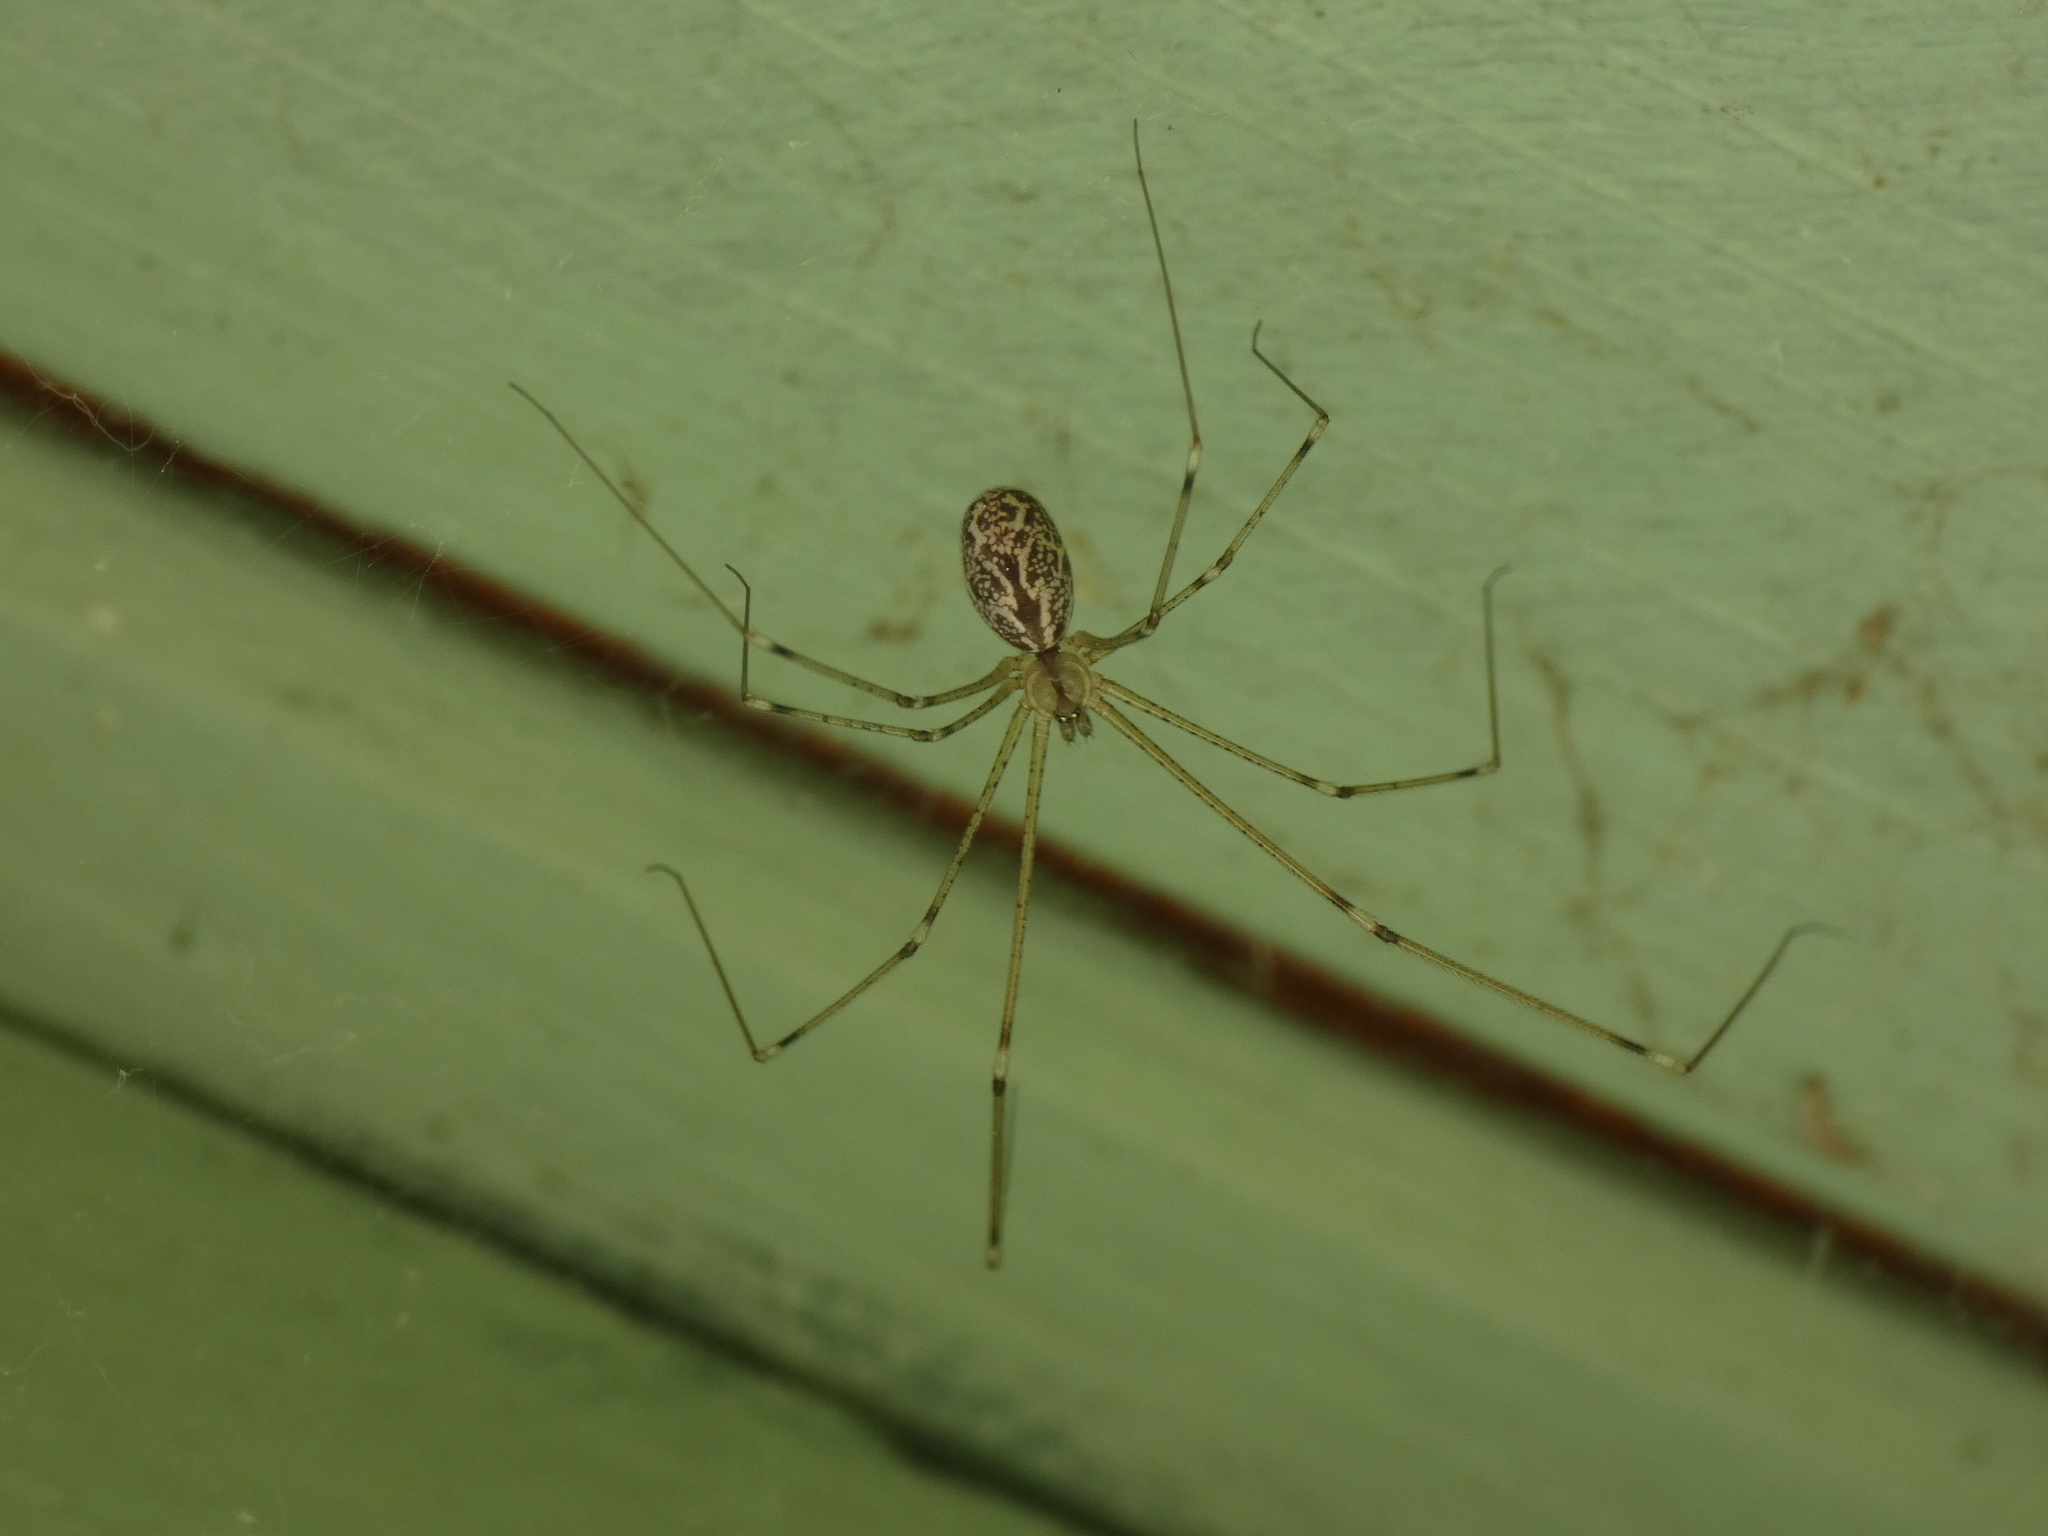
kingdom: Animalia
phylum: Arthropoda
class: Arachnida
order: Araneae
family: Pholcidae
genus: Holocnemus
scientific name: Holocnemus pluchei
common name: Marbled cellar spider
